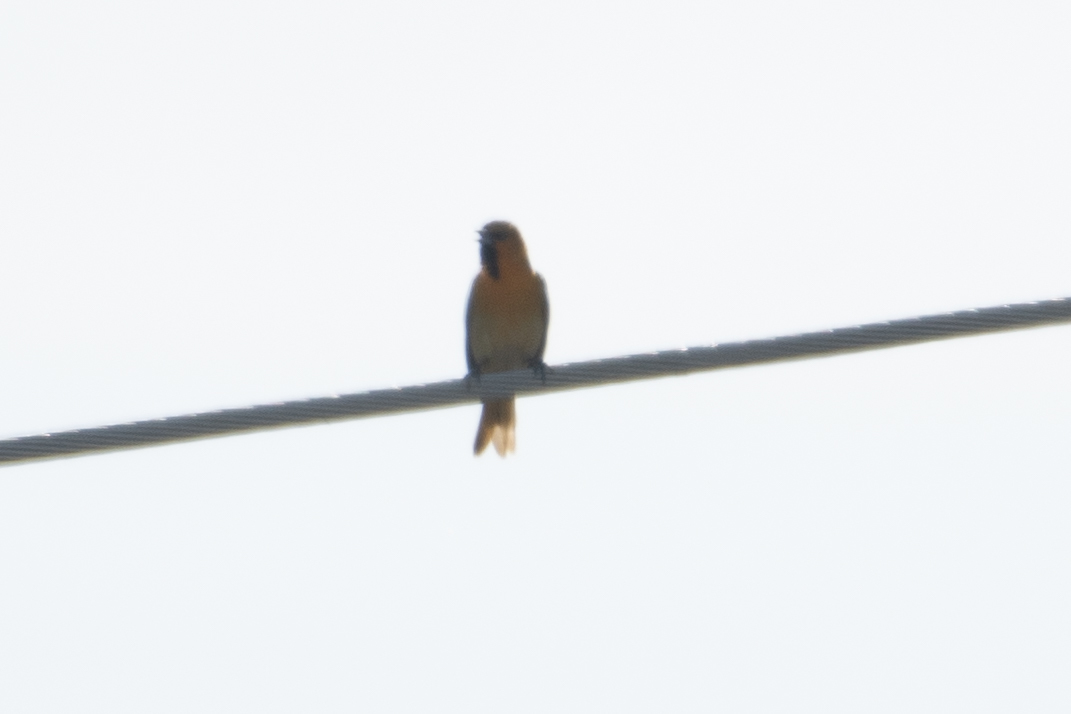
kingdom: Animalia
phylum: Chordata
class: Aves
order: Passeriformes
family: Icteridae
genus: Icterus
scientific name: Icterus bullockii
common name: Bullock's oriole
